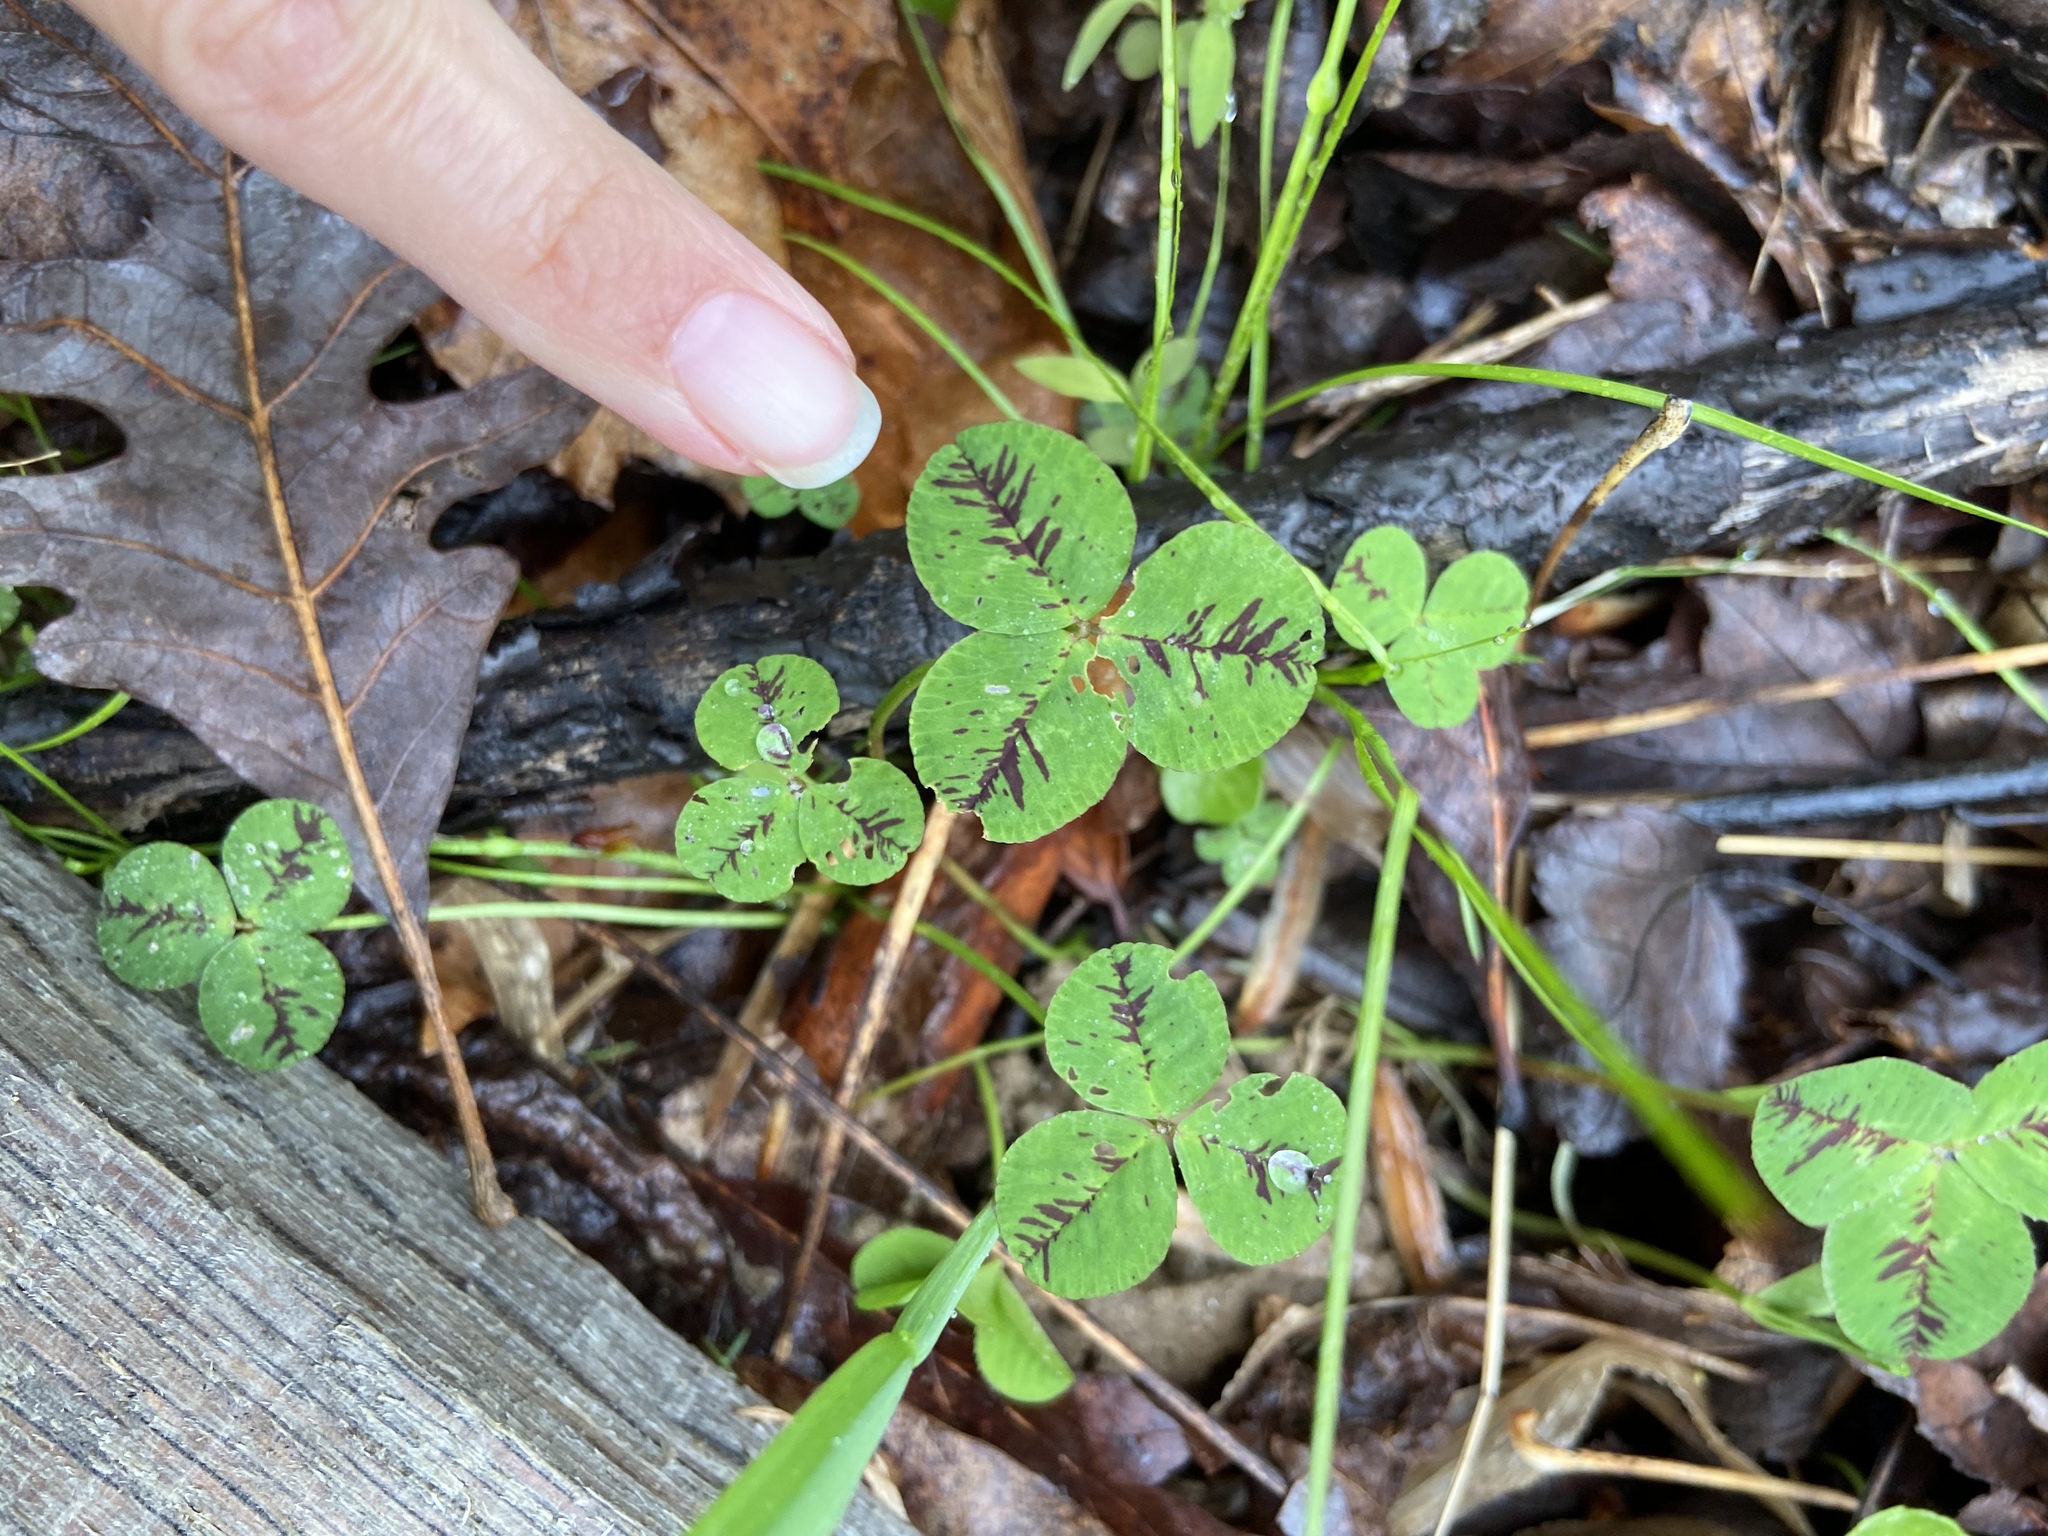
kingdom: Plantae
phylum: Tracheophyta
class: Magnoliopsida
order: Fabales
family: Fabaceae
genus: Trifolium
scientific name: Trifolium repens
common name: White clover
